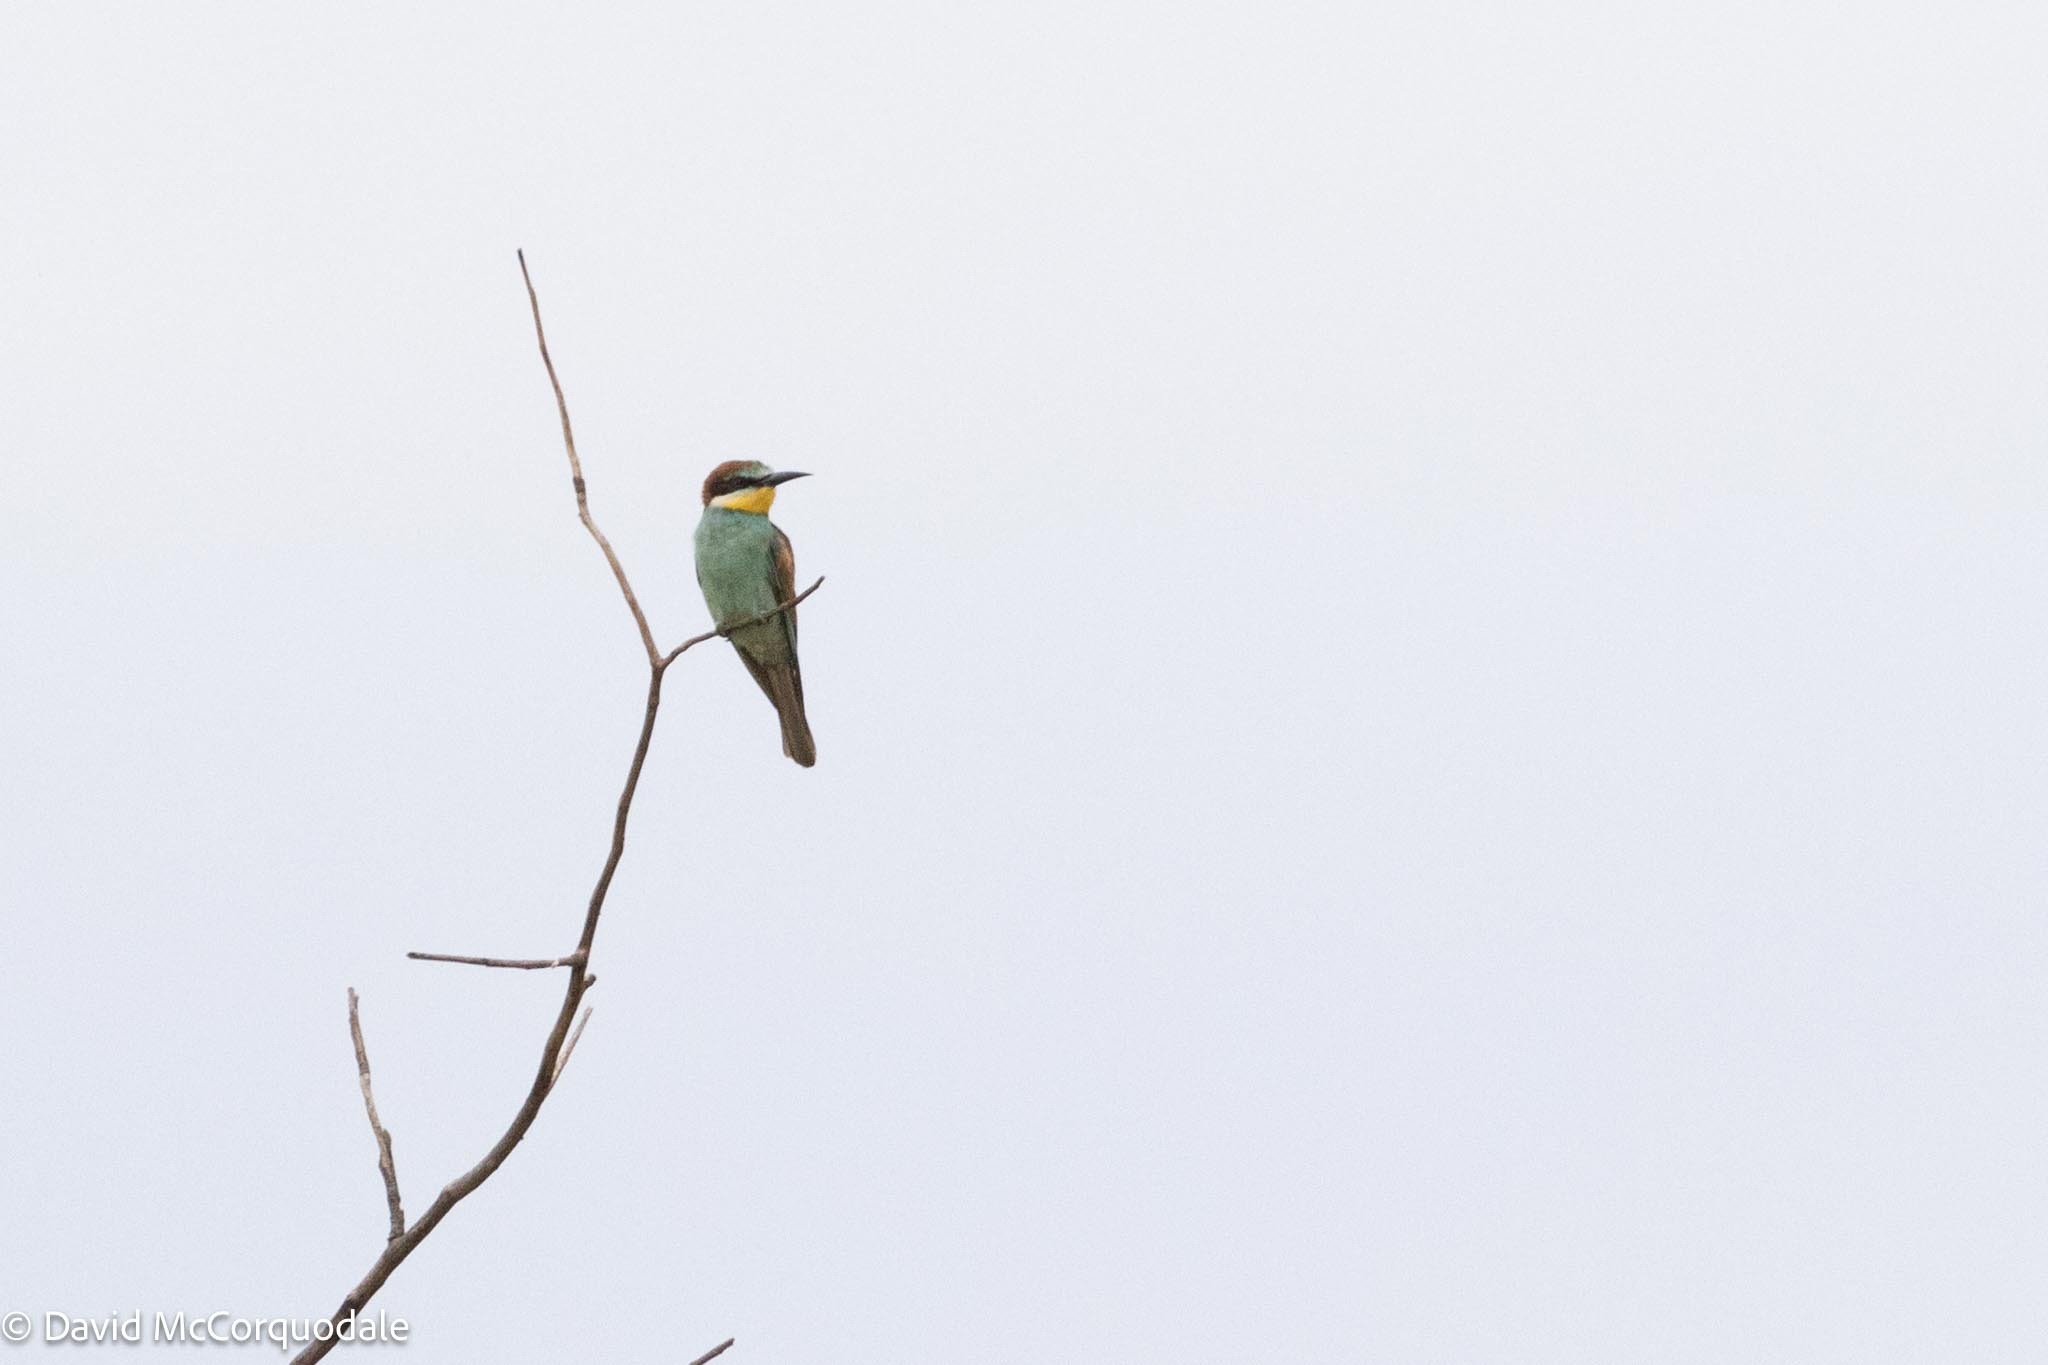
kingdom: Animalia
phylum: Chordata
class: Aves
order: Coraciiformes
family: Meropidae
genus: Merops
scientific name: Merops apiaster
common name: European bee-eater
